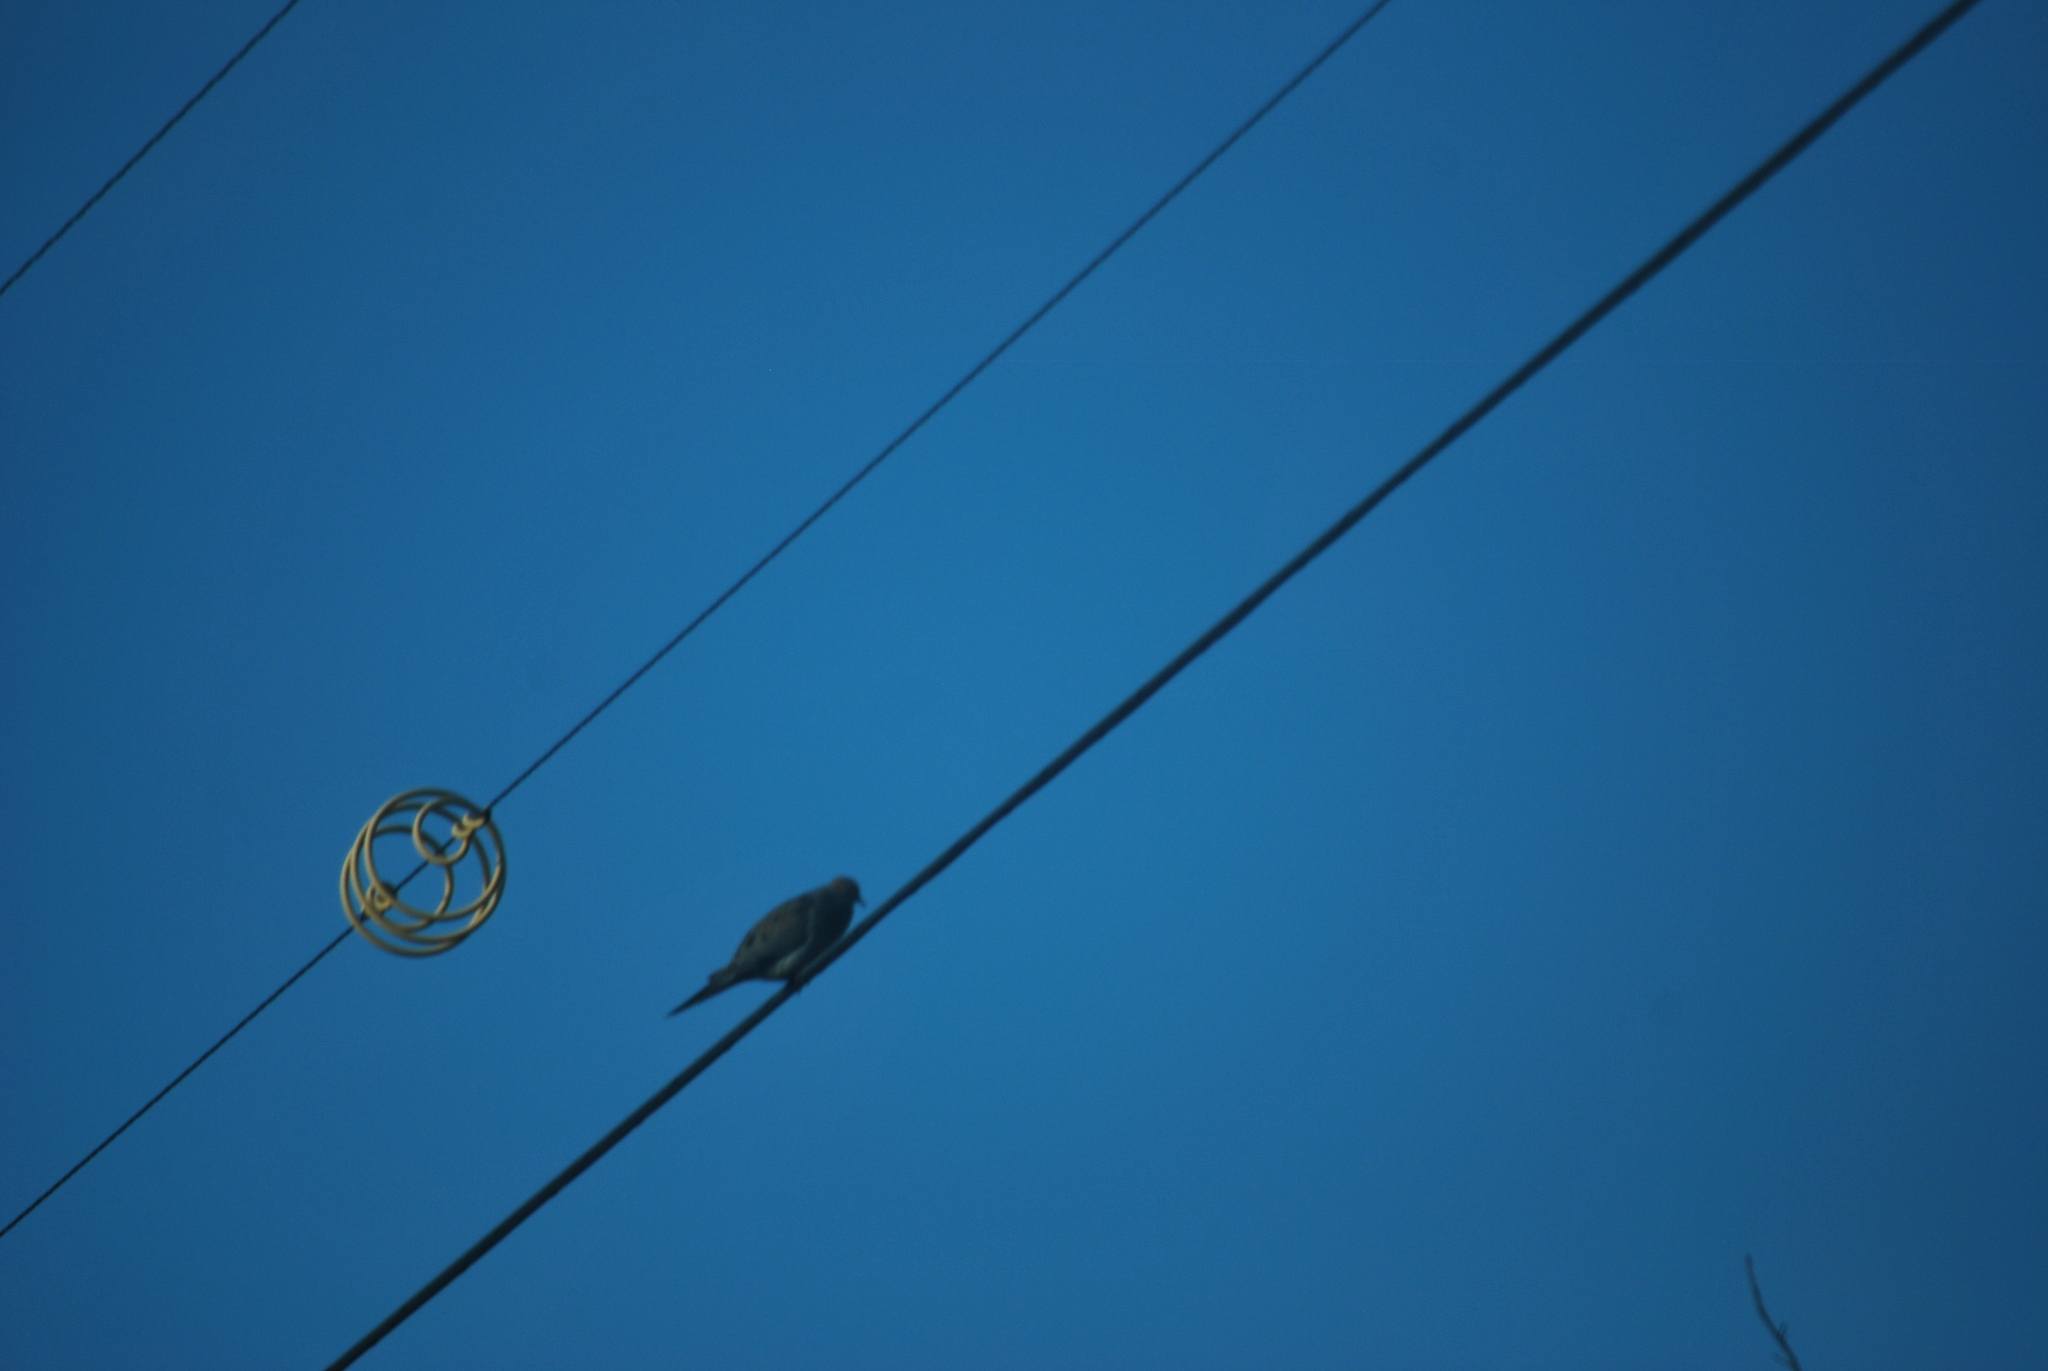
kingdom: Animalia
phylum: Chordata
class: Aves
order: Columbiformes
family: Columbidae
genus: Zenaida
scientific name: Zenaida macroura
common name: Mourning dove
